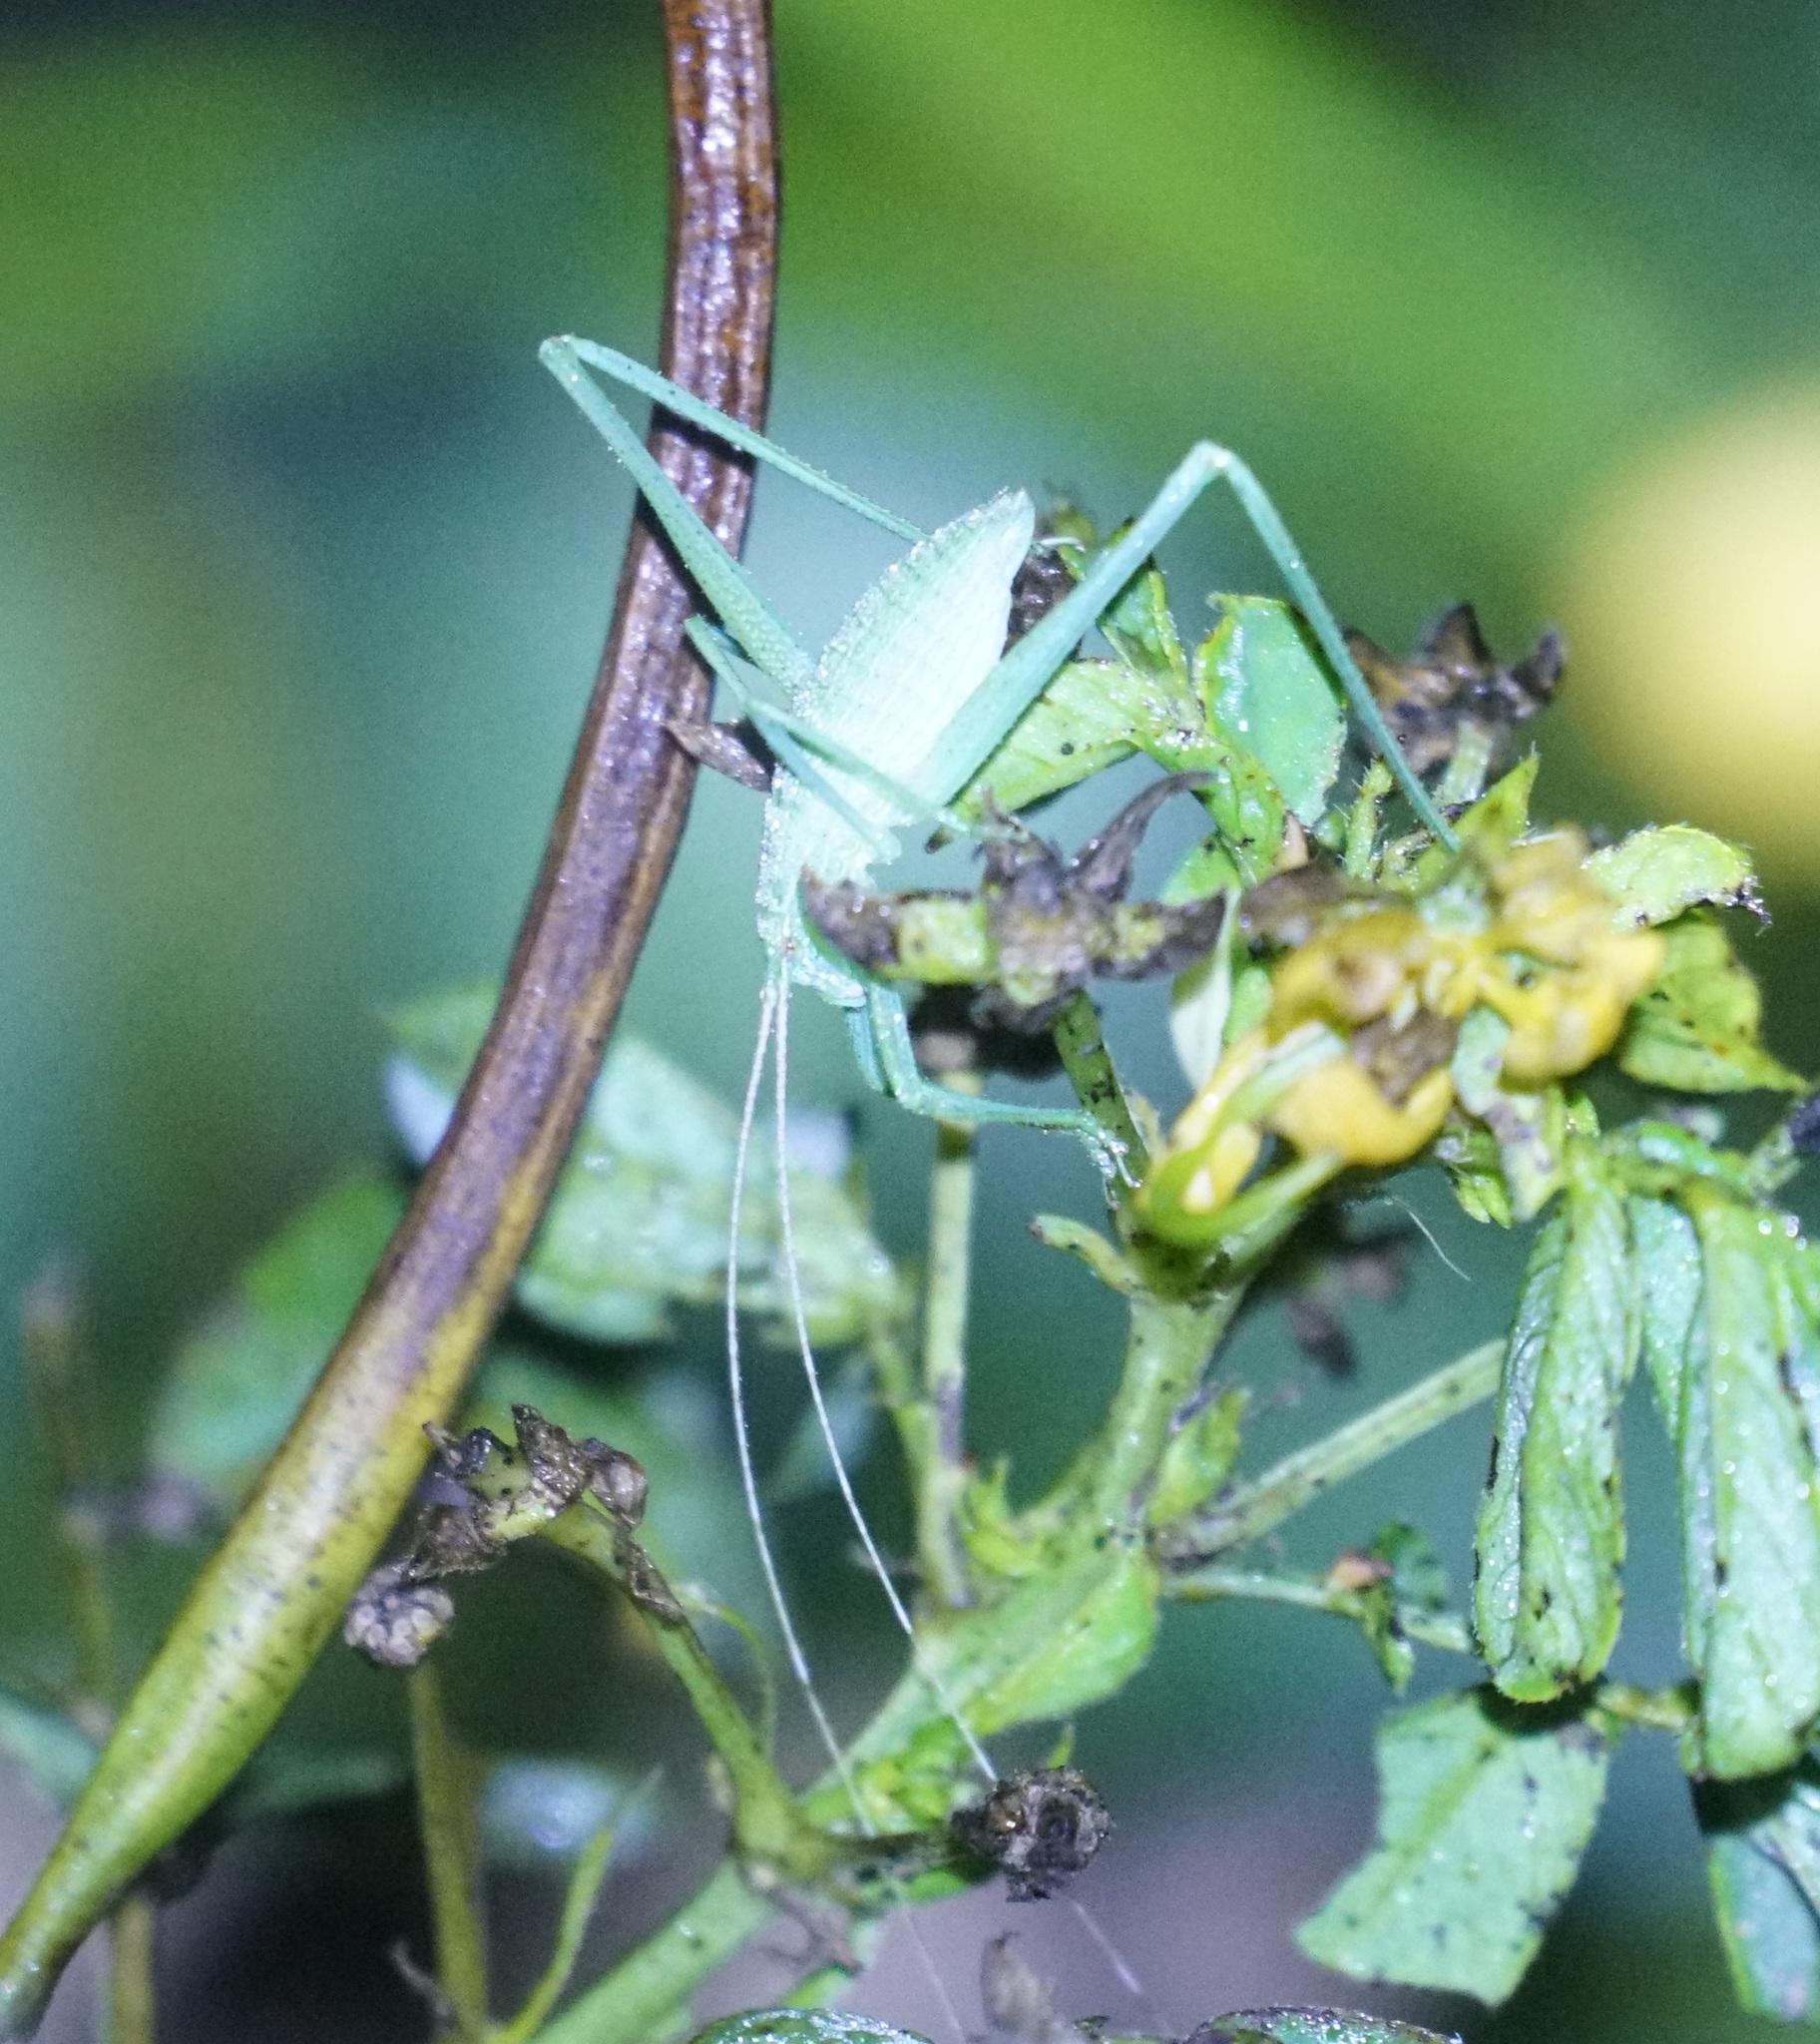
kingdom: Animalia
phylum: Arthropoda
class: Insecta
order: Orthoptera
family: Tettigoniidae
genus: Ducetia
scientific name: Ducetia antipoda
